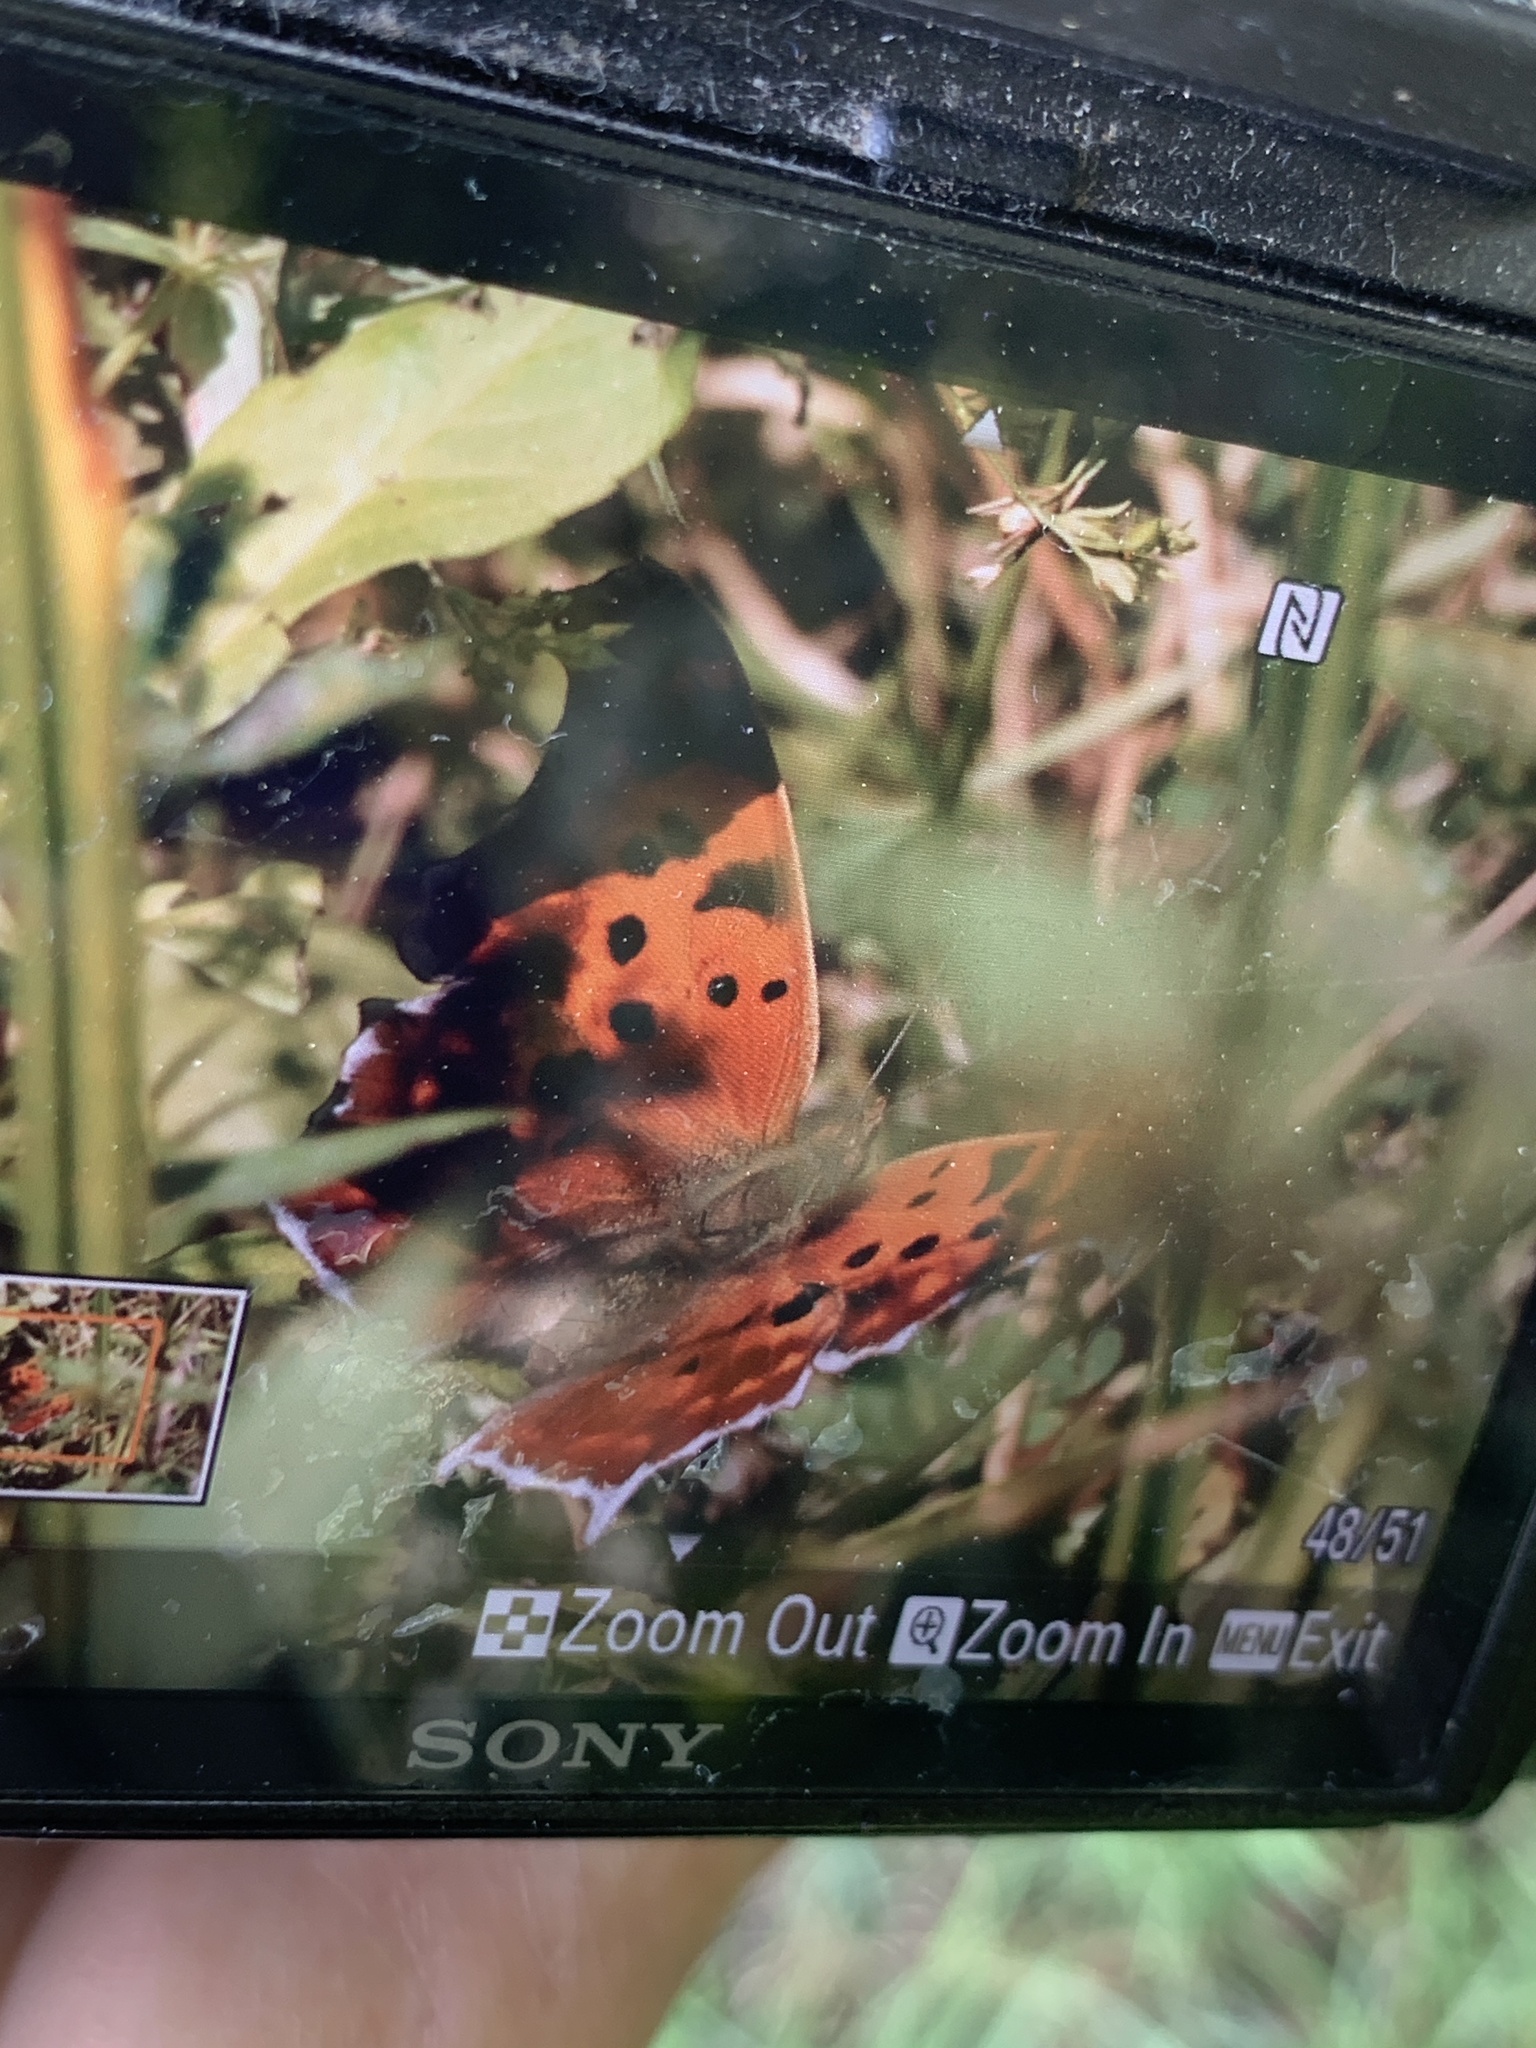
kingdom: Animalia
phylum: Arthropoda
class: Insecta
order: Lepidoptera
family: Nymphalidae
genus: Polygonia
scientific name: Polygonia interrogationis
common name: Question mark
